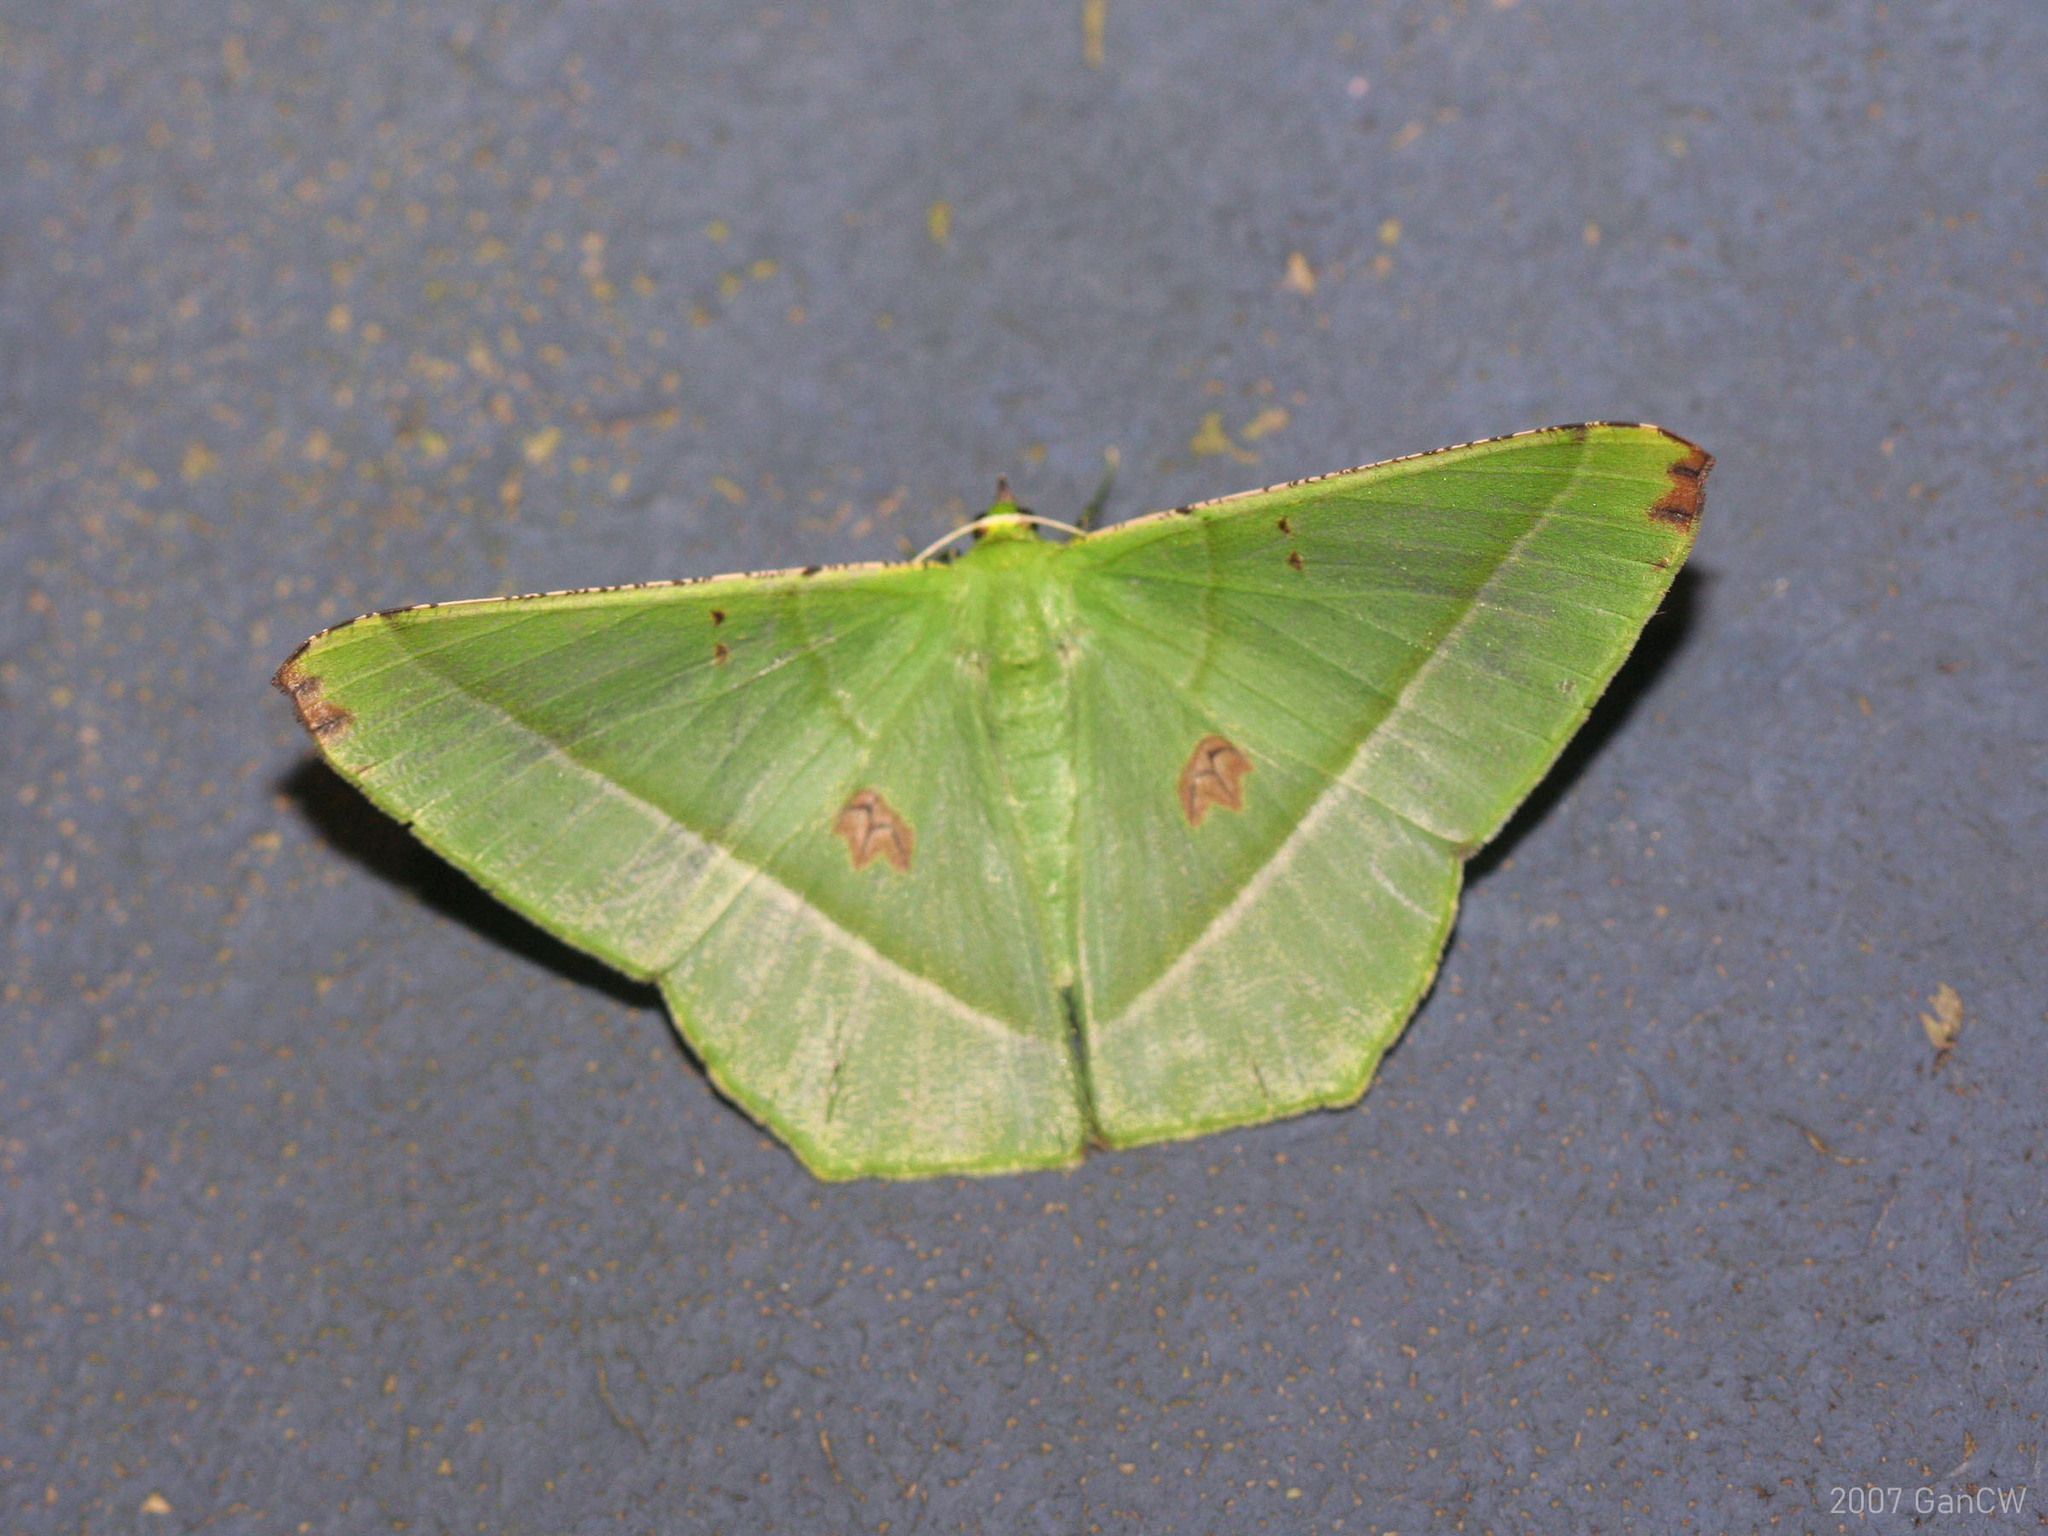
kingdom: Animalia
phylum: Arthropoda
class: Insecta
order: Lepidoptera
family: Geometridae
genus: Ornithospila
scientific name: Ornithospila esmeralda
